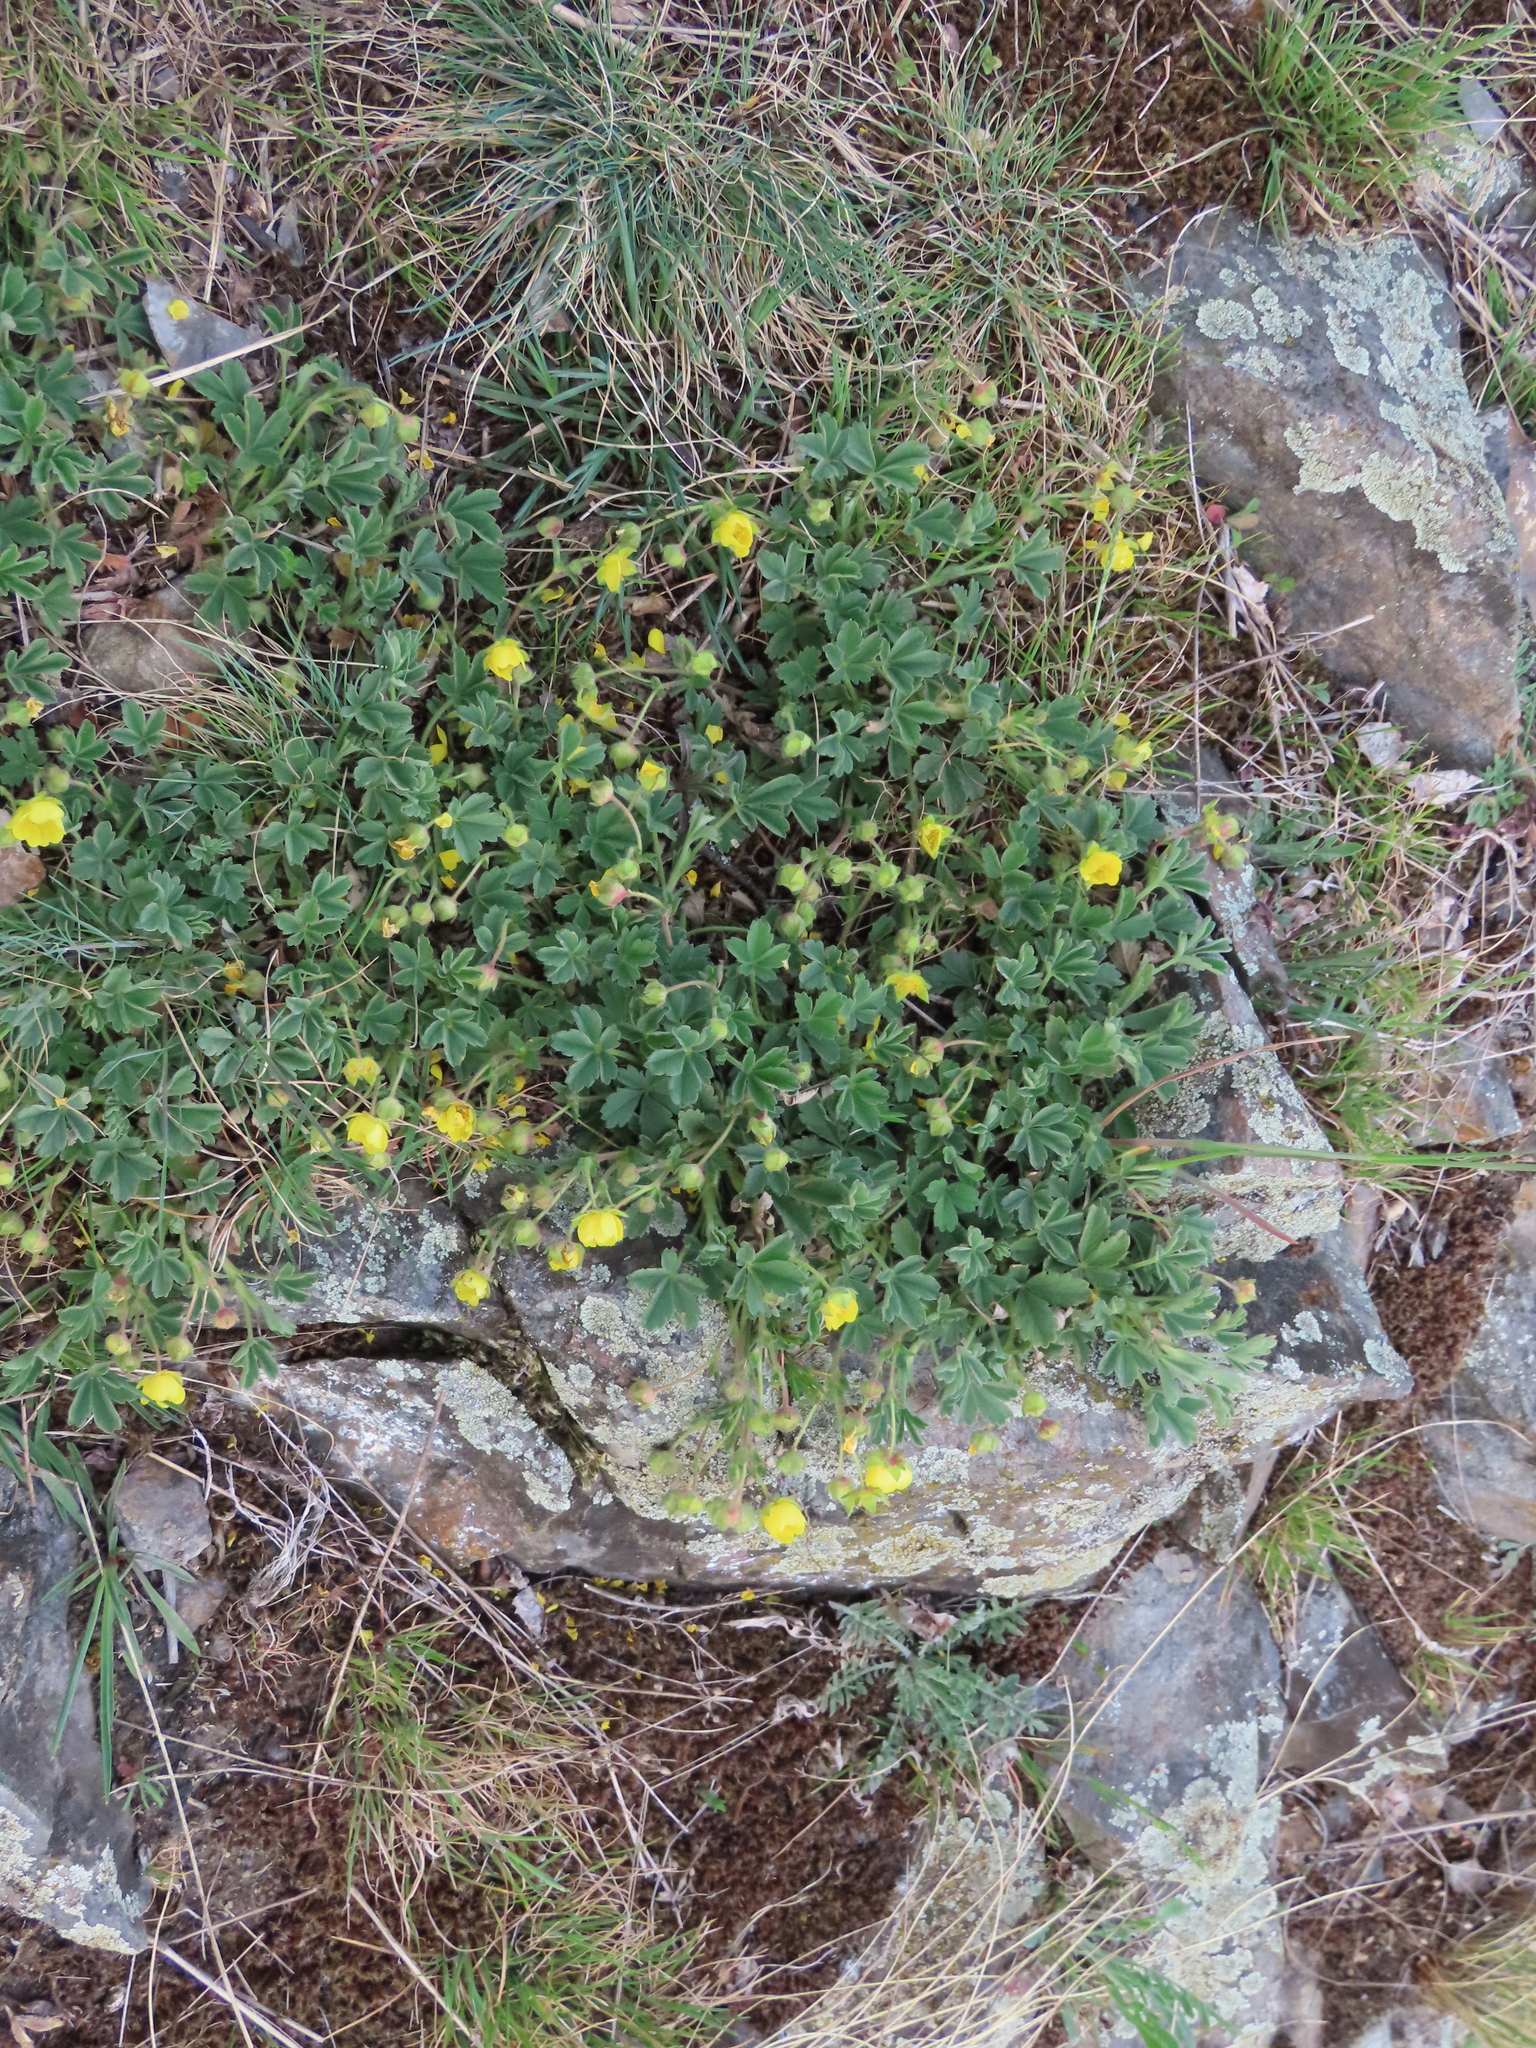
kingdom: Plantae
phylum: Tracheophyta
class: Magnoliopsida
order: Rosales
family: Rosaceae
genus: Potentilla
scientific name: Potentilla incana
